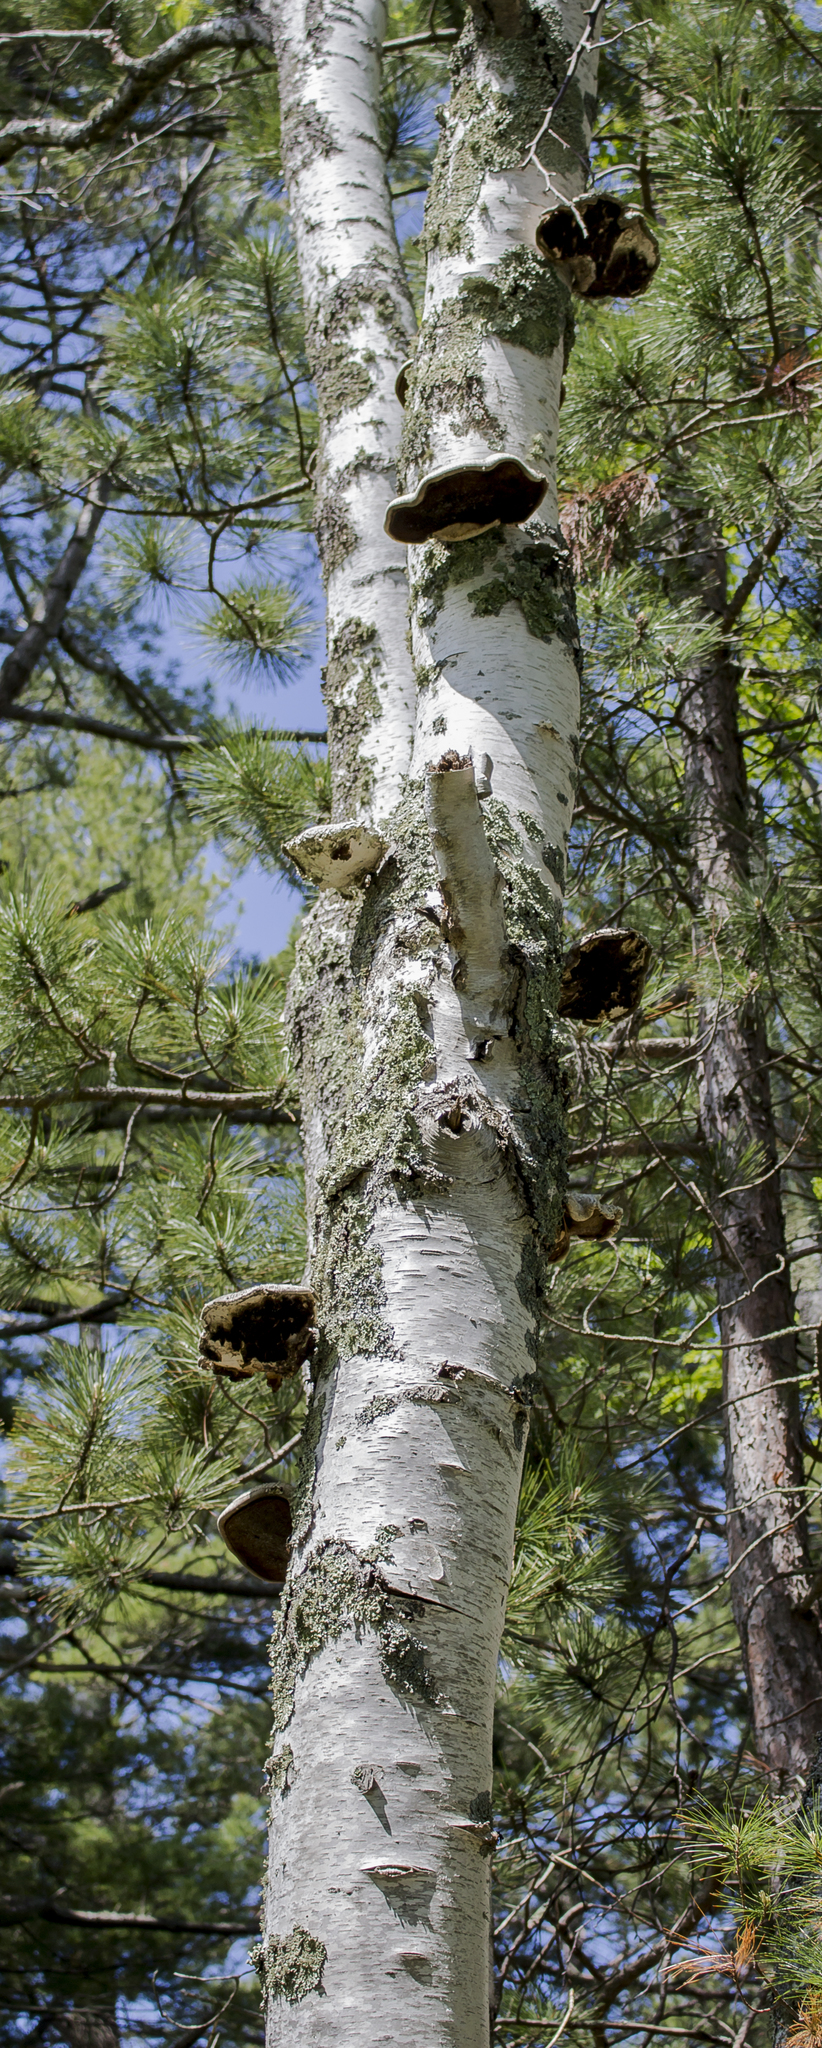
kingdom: Plantae
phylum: Tracheophyta
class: Magnoliopsida
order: Fagales
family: Betulaceae
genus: Betula
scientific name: Betula papyrifera
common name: Paper birch
